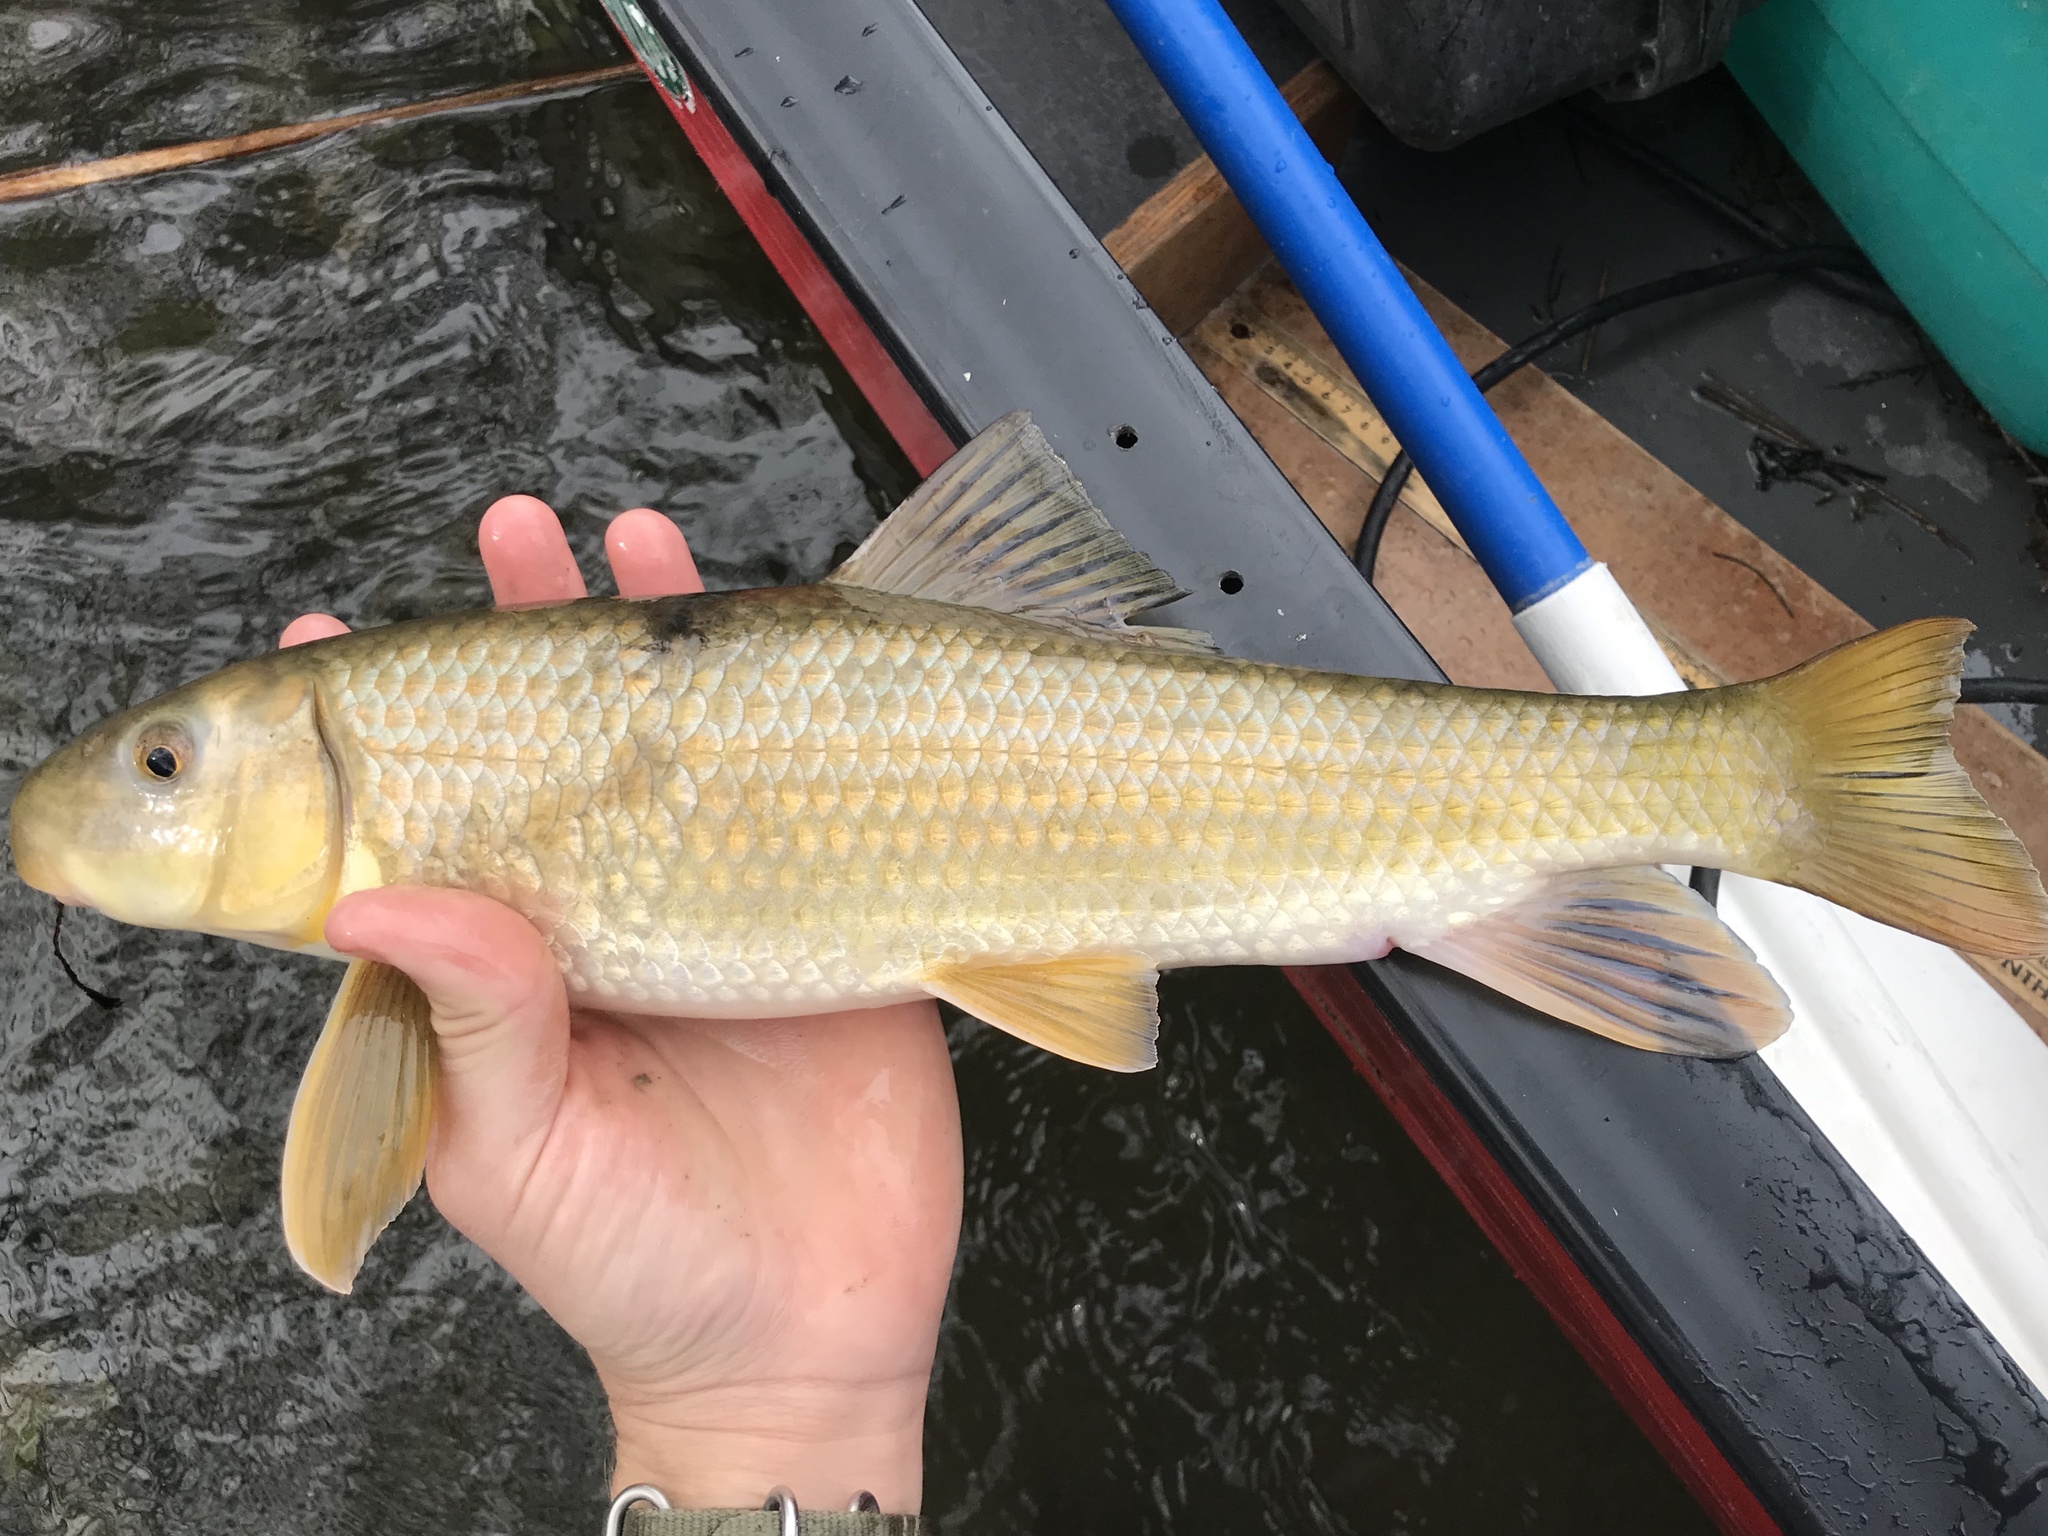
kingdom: Animalia
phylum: Chordata
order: Cypriniformes
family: Catostomidae
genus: Moxostoma
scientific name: Moxostoma congestum
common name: Gray redhorse
